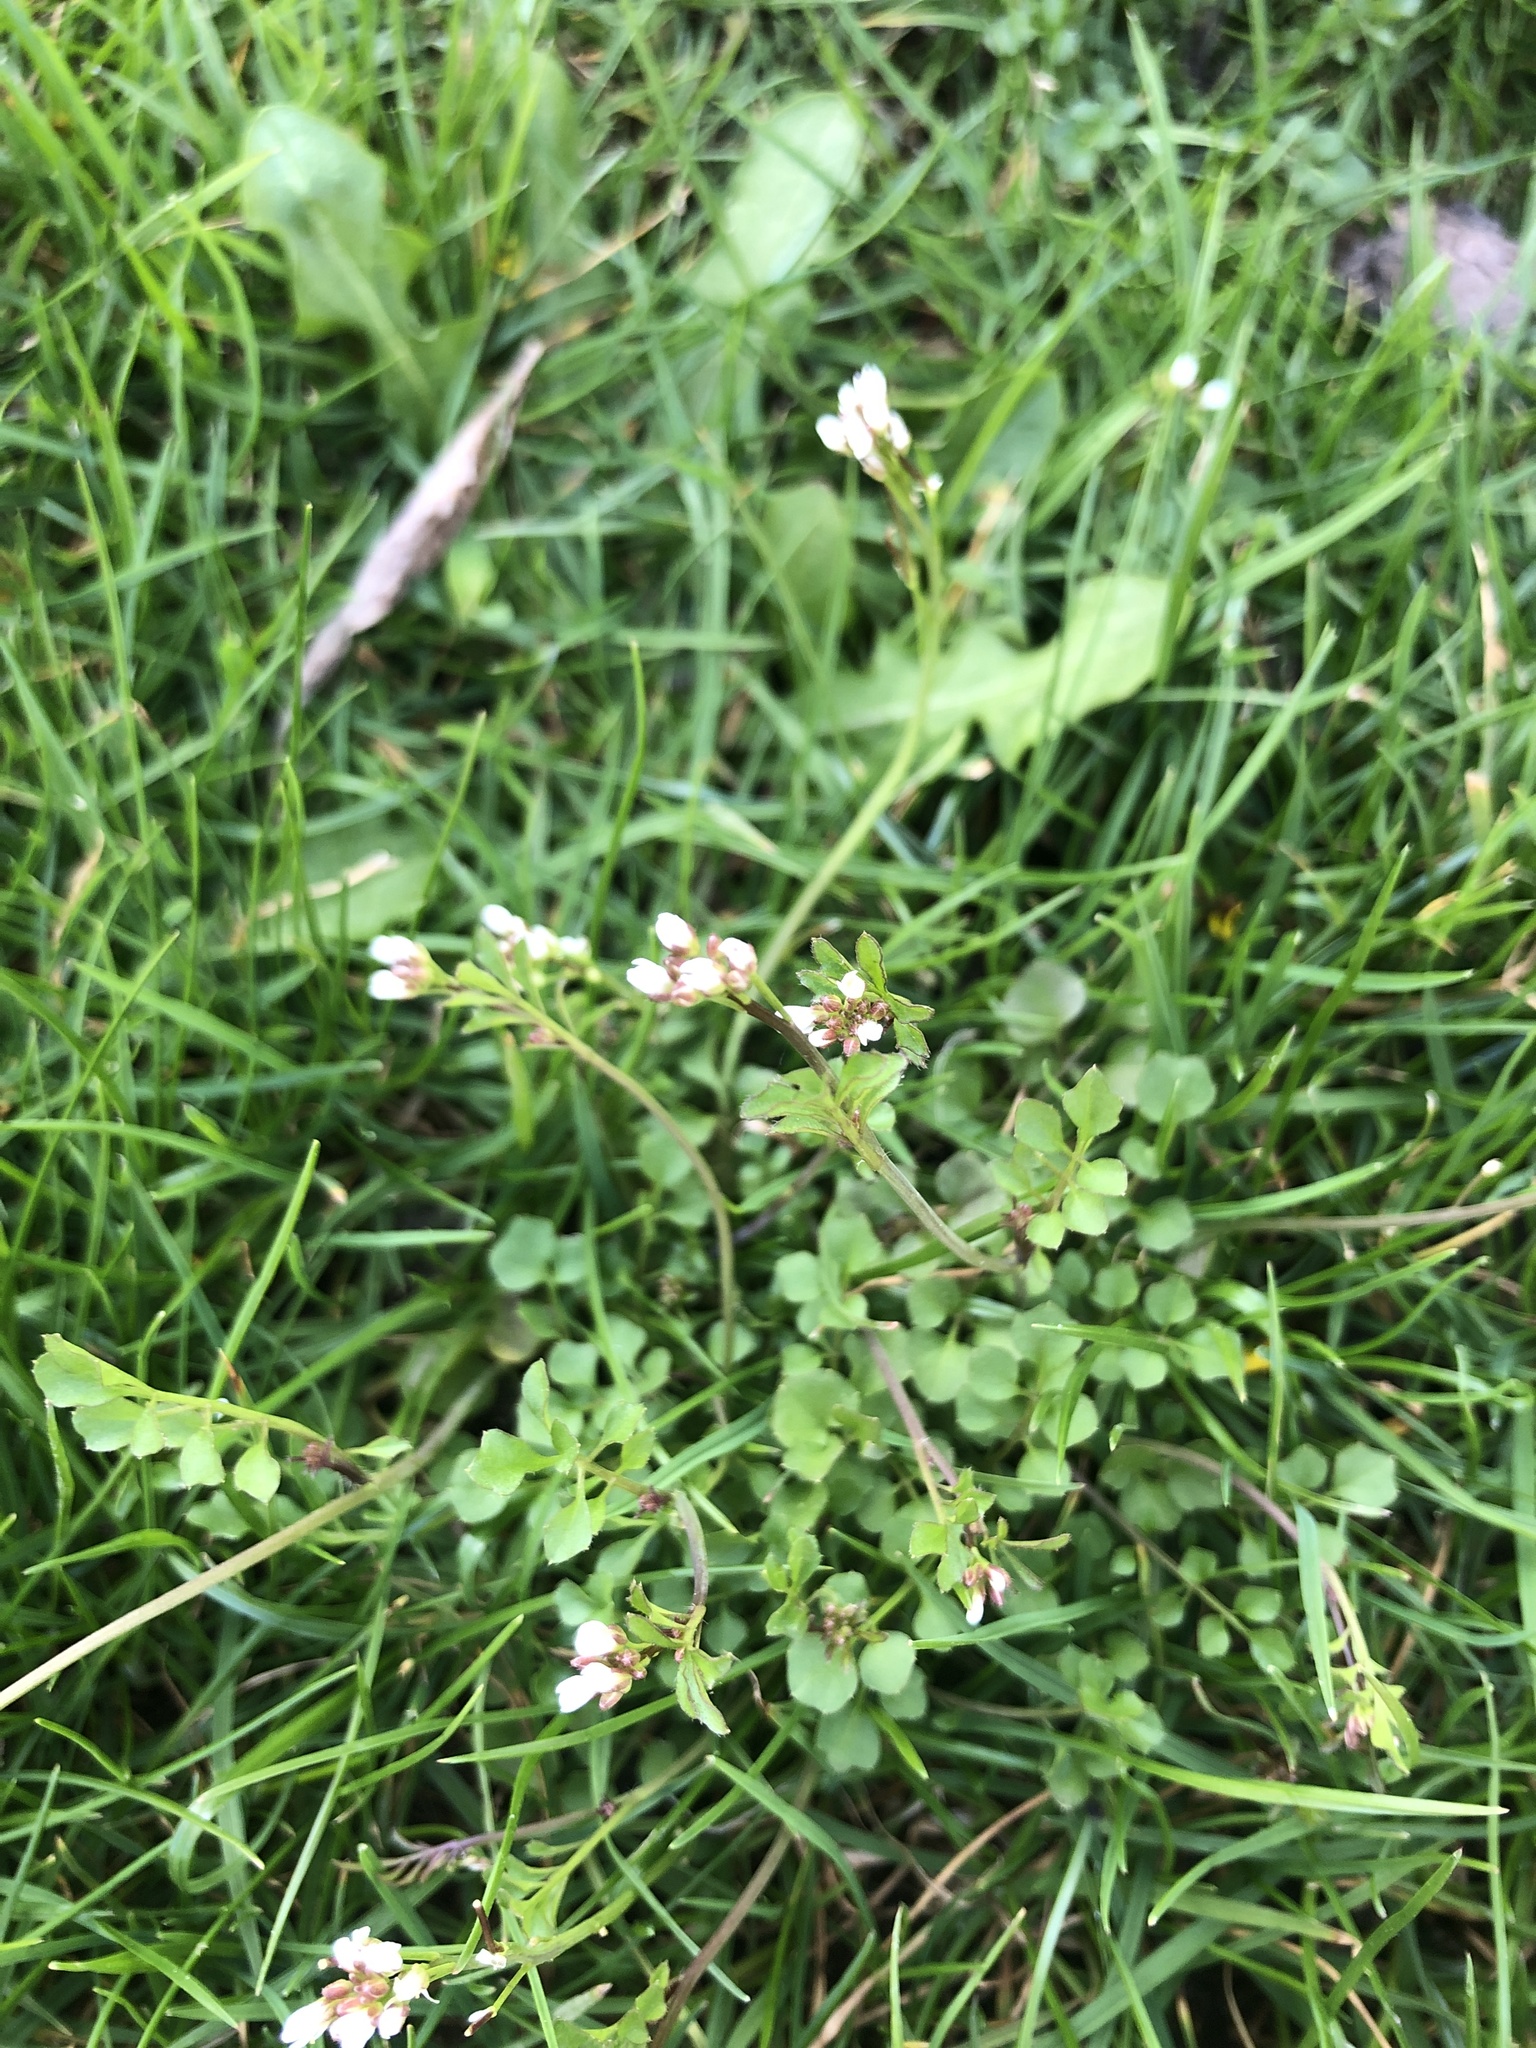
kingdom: Plantae
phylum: Tracheophyta
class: Magnoliopsida
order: Brassicales
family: Brassicaceae
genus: Cardamine
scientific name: Cardamine hirsuta
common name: Hairy bittercress
